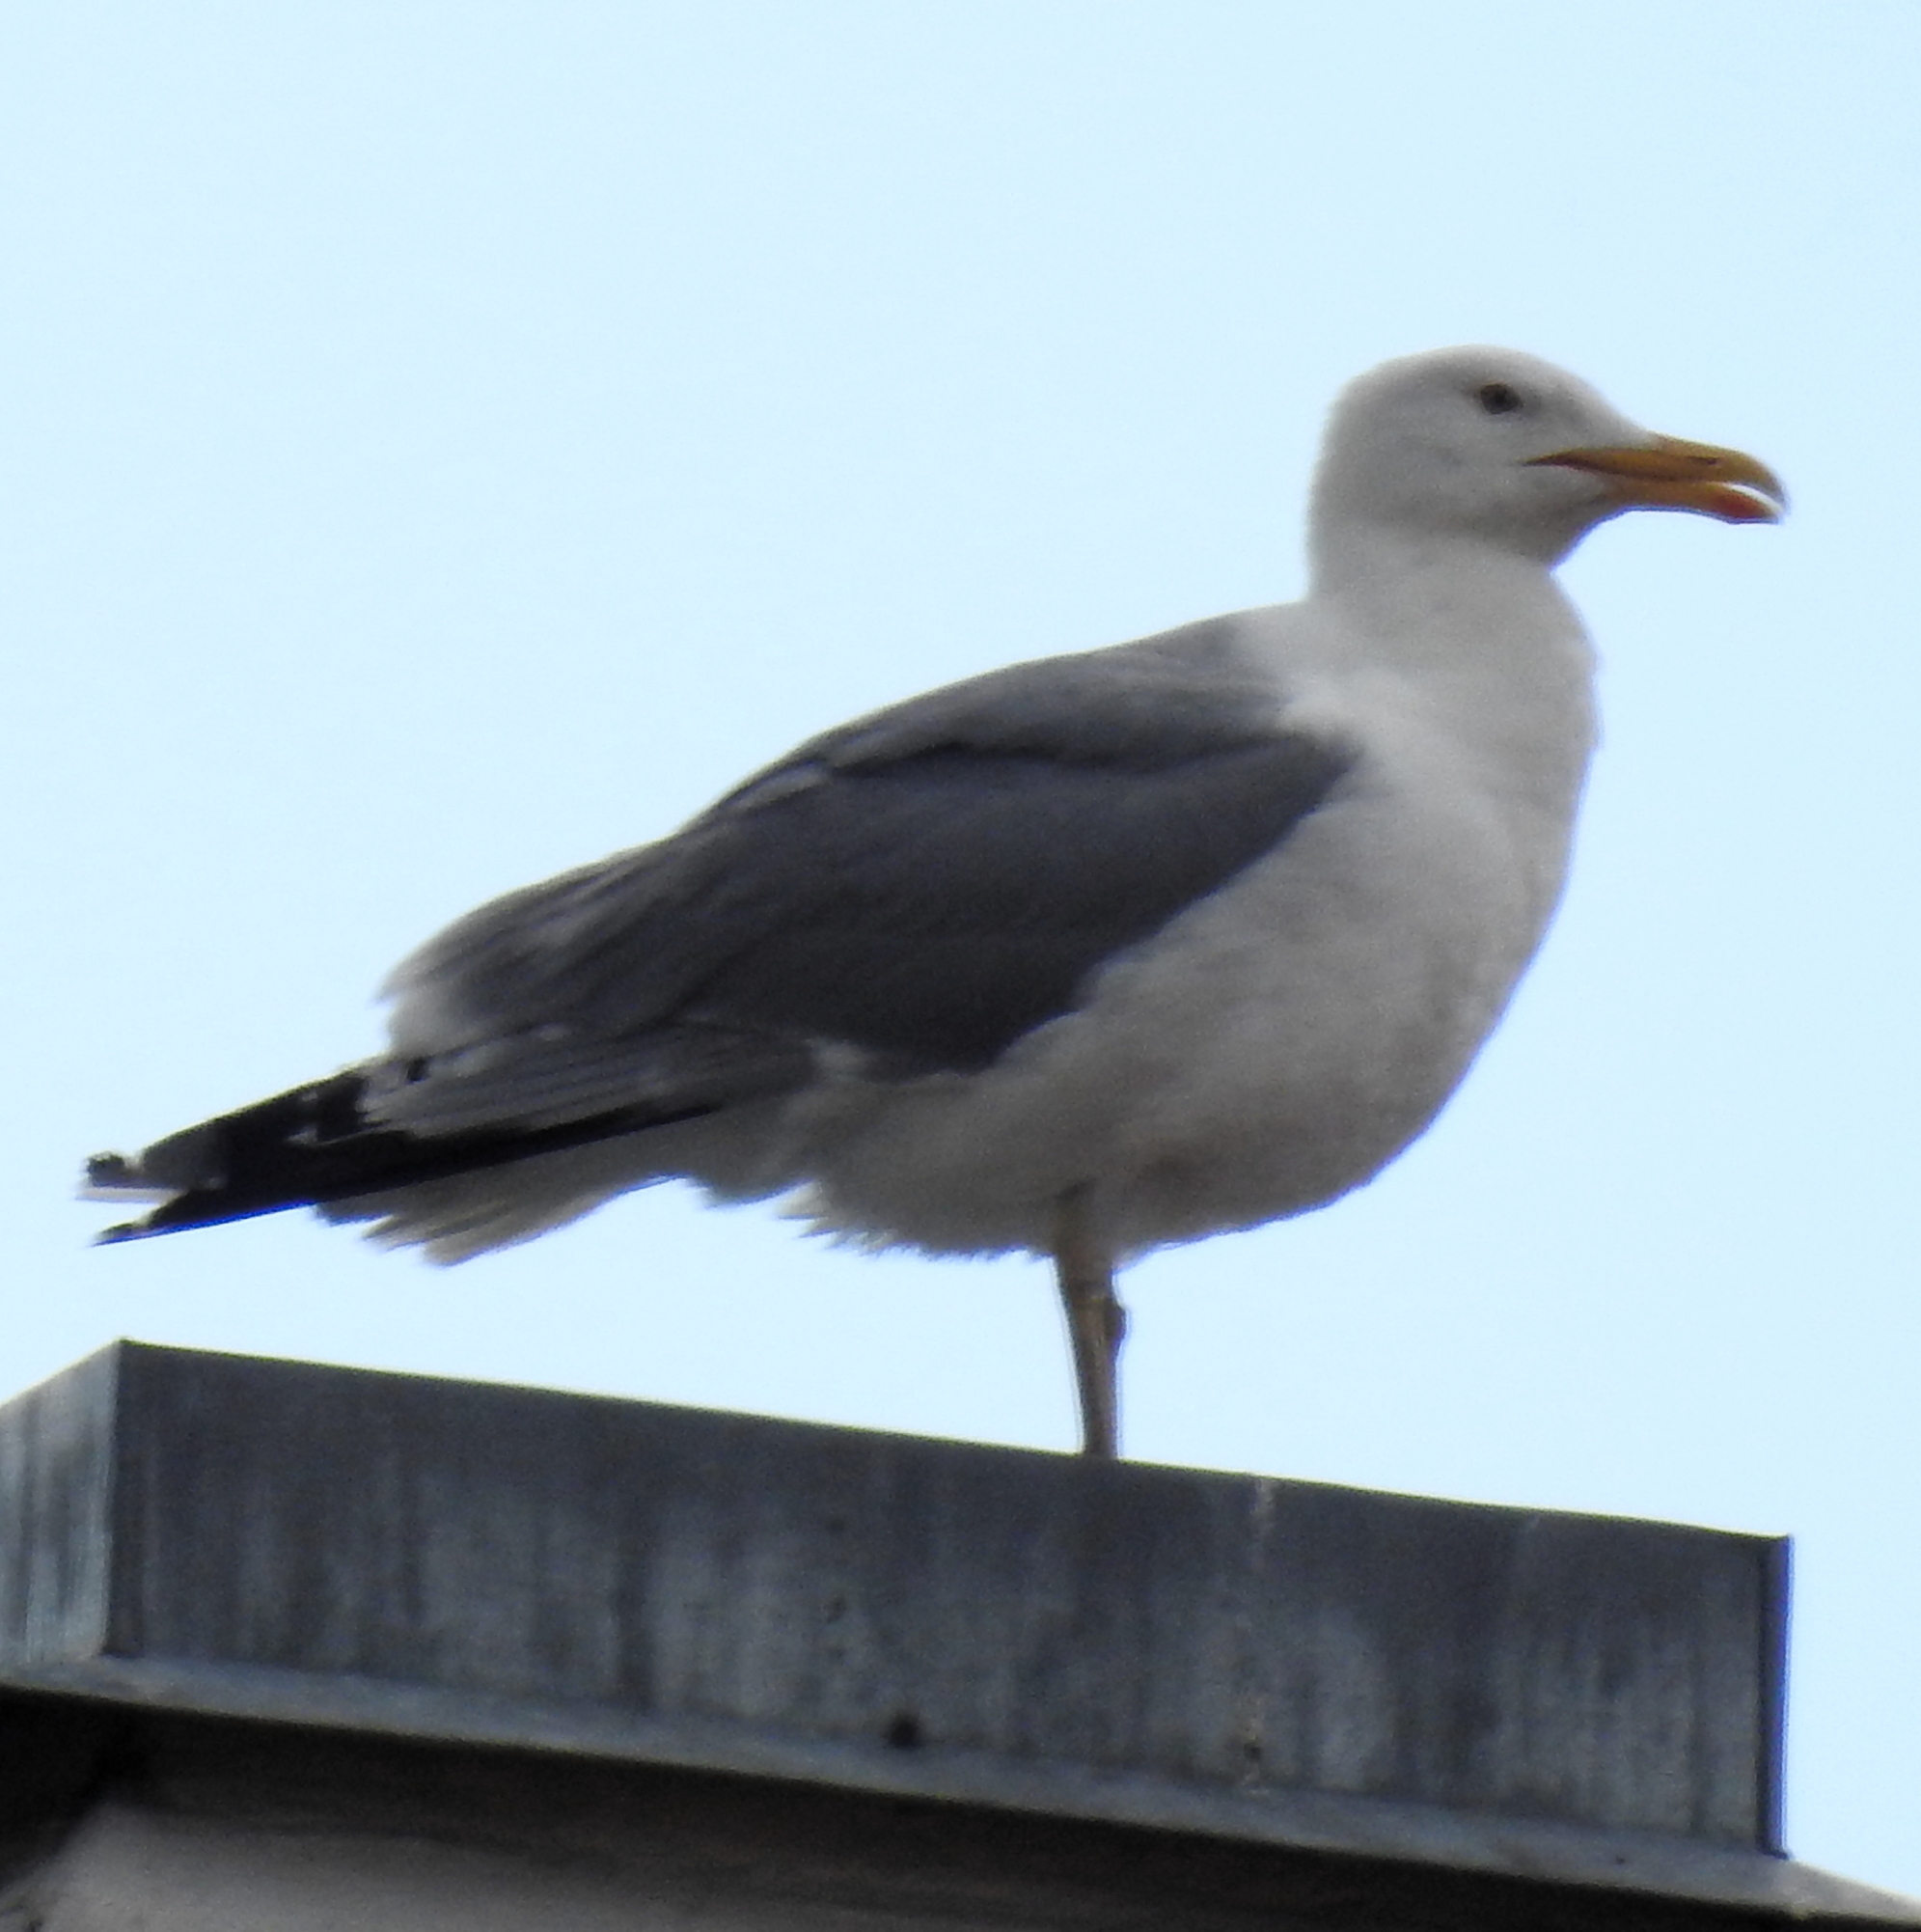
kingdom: Animalia
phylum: Chordata
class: Aves
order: Charadriiformes
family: Laridae
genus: Larus
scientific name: Larus argentatus
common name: Herring gull
